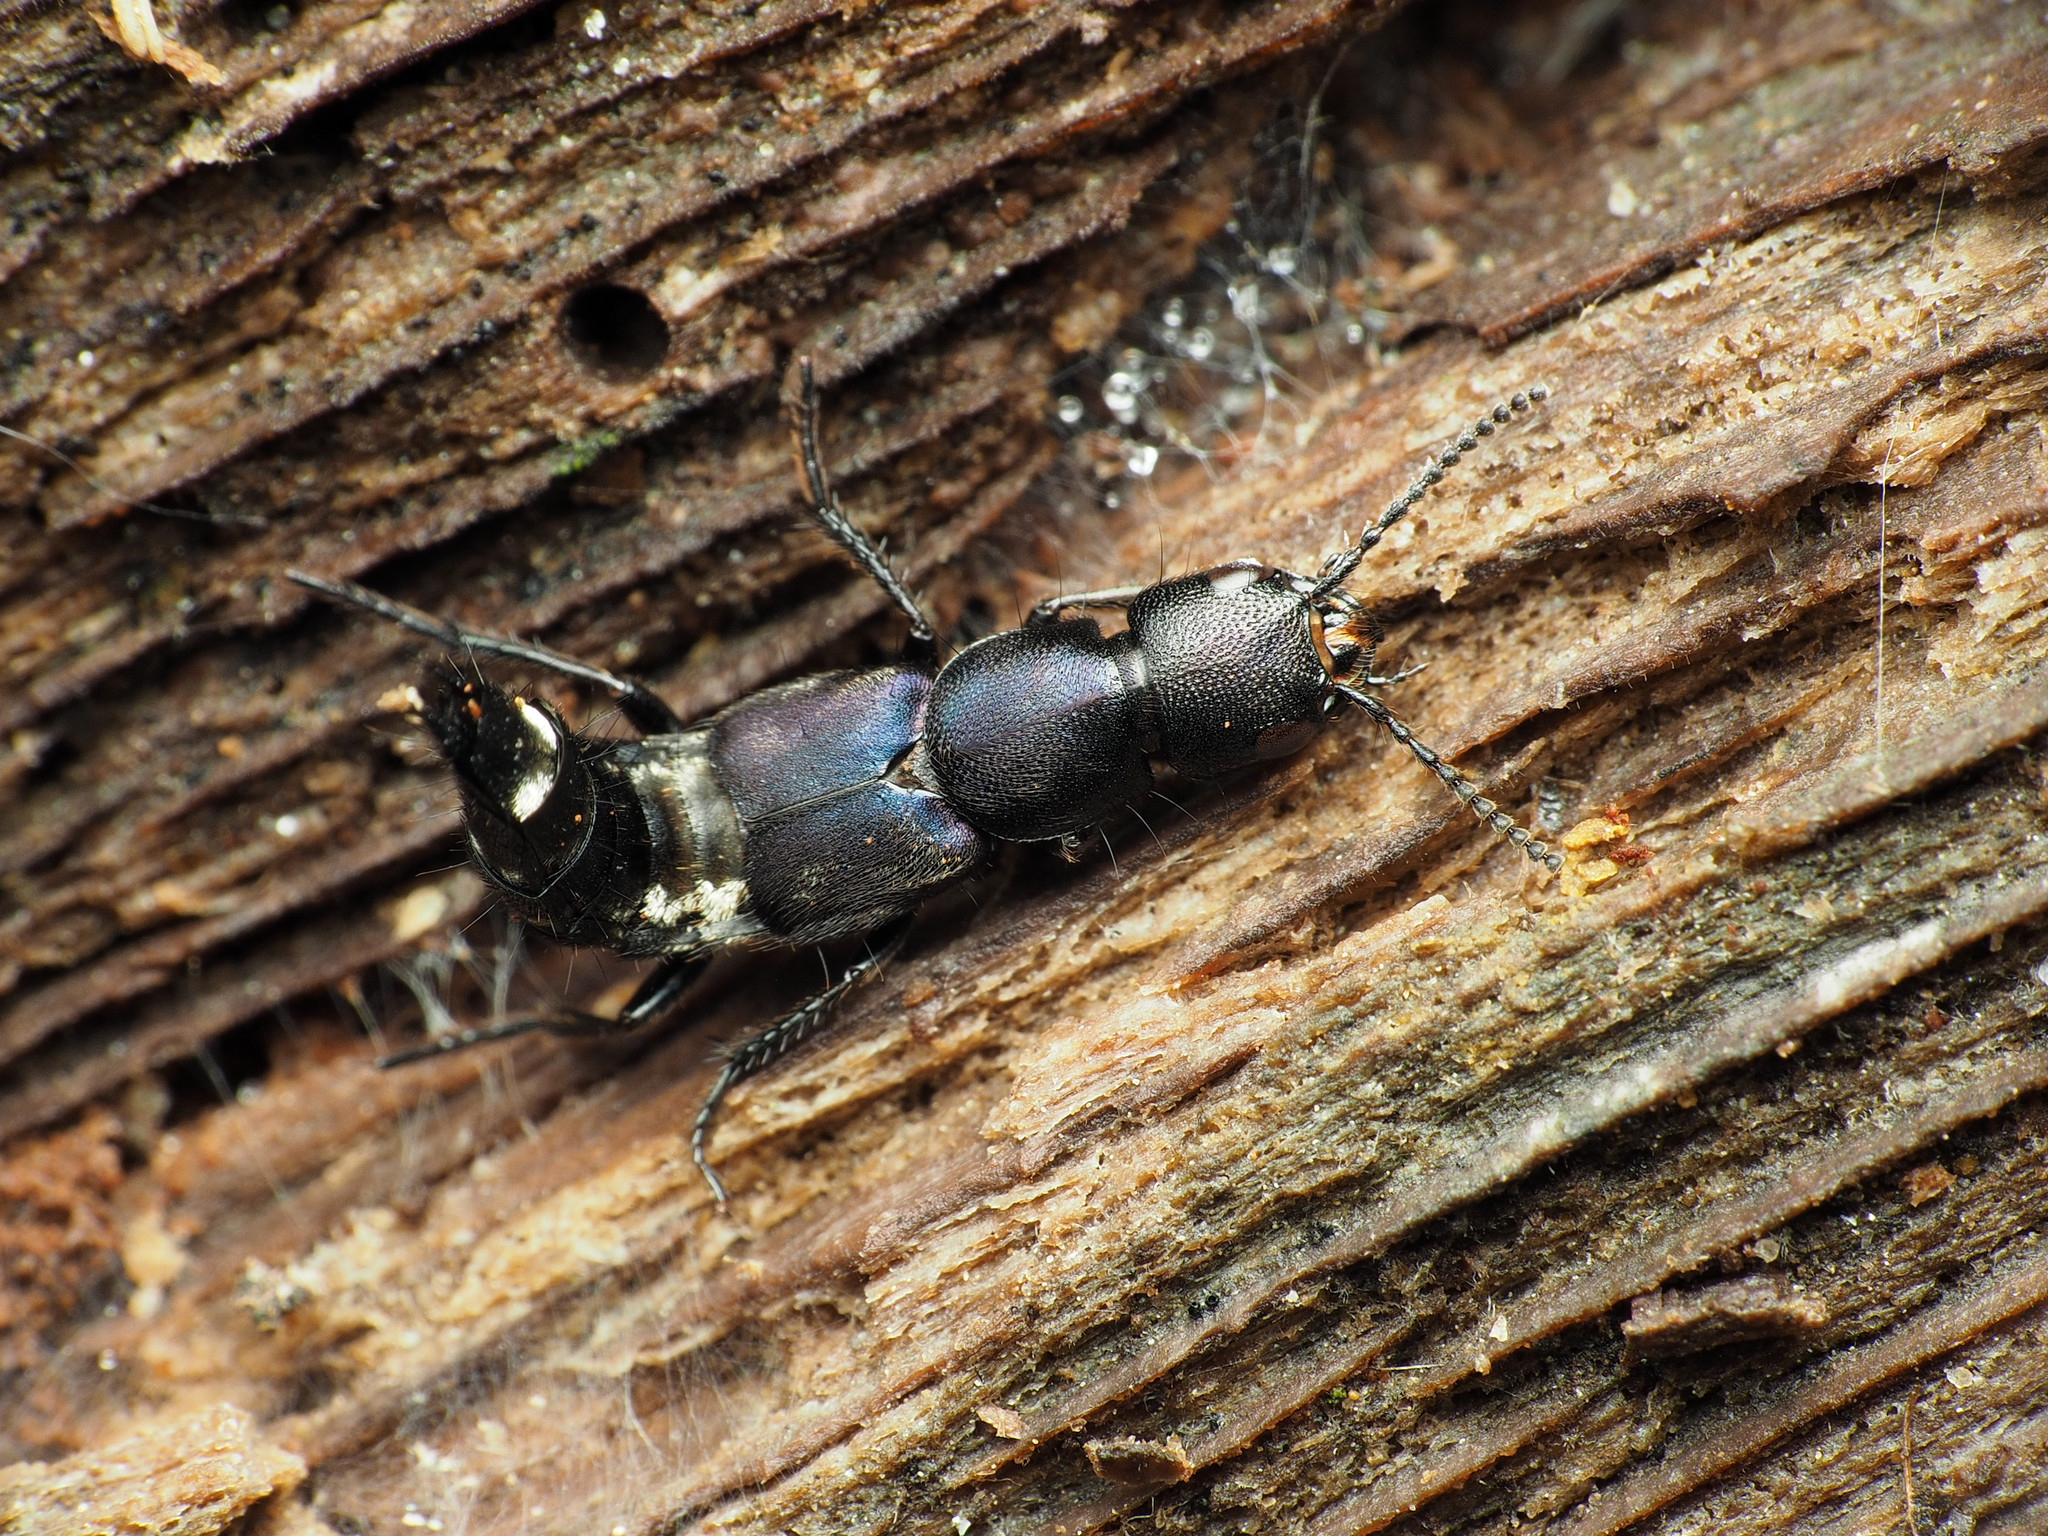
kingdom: Animalia
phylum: Arthropoda
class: Insecta
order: Coleoptera
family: Staphylinidae
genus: Platydracus
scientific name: Platydracus violaceus
